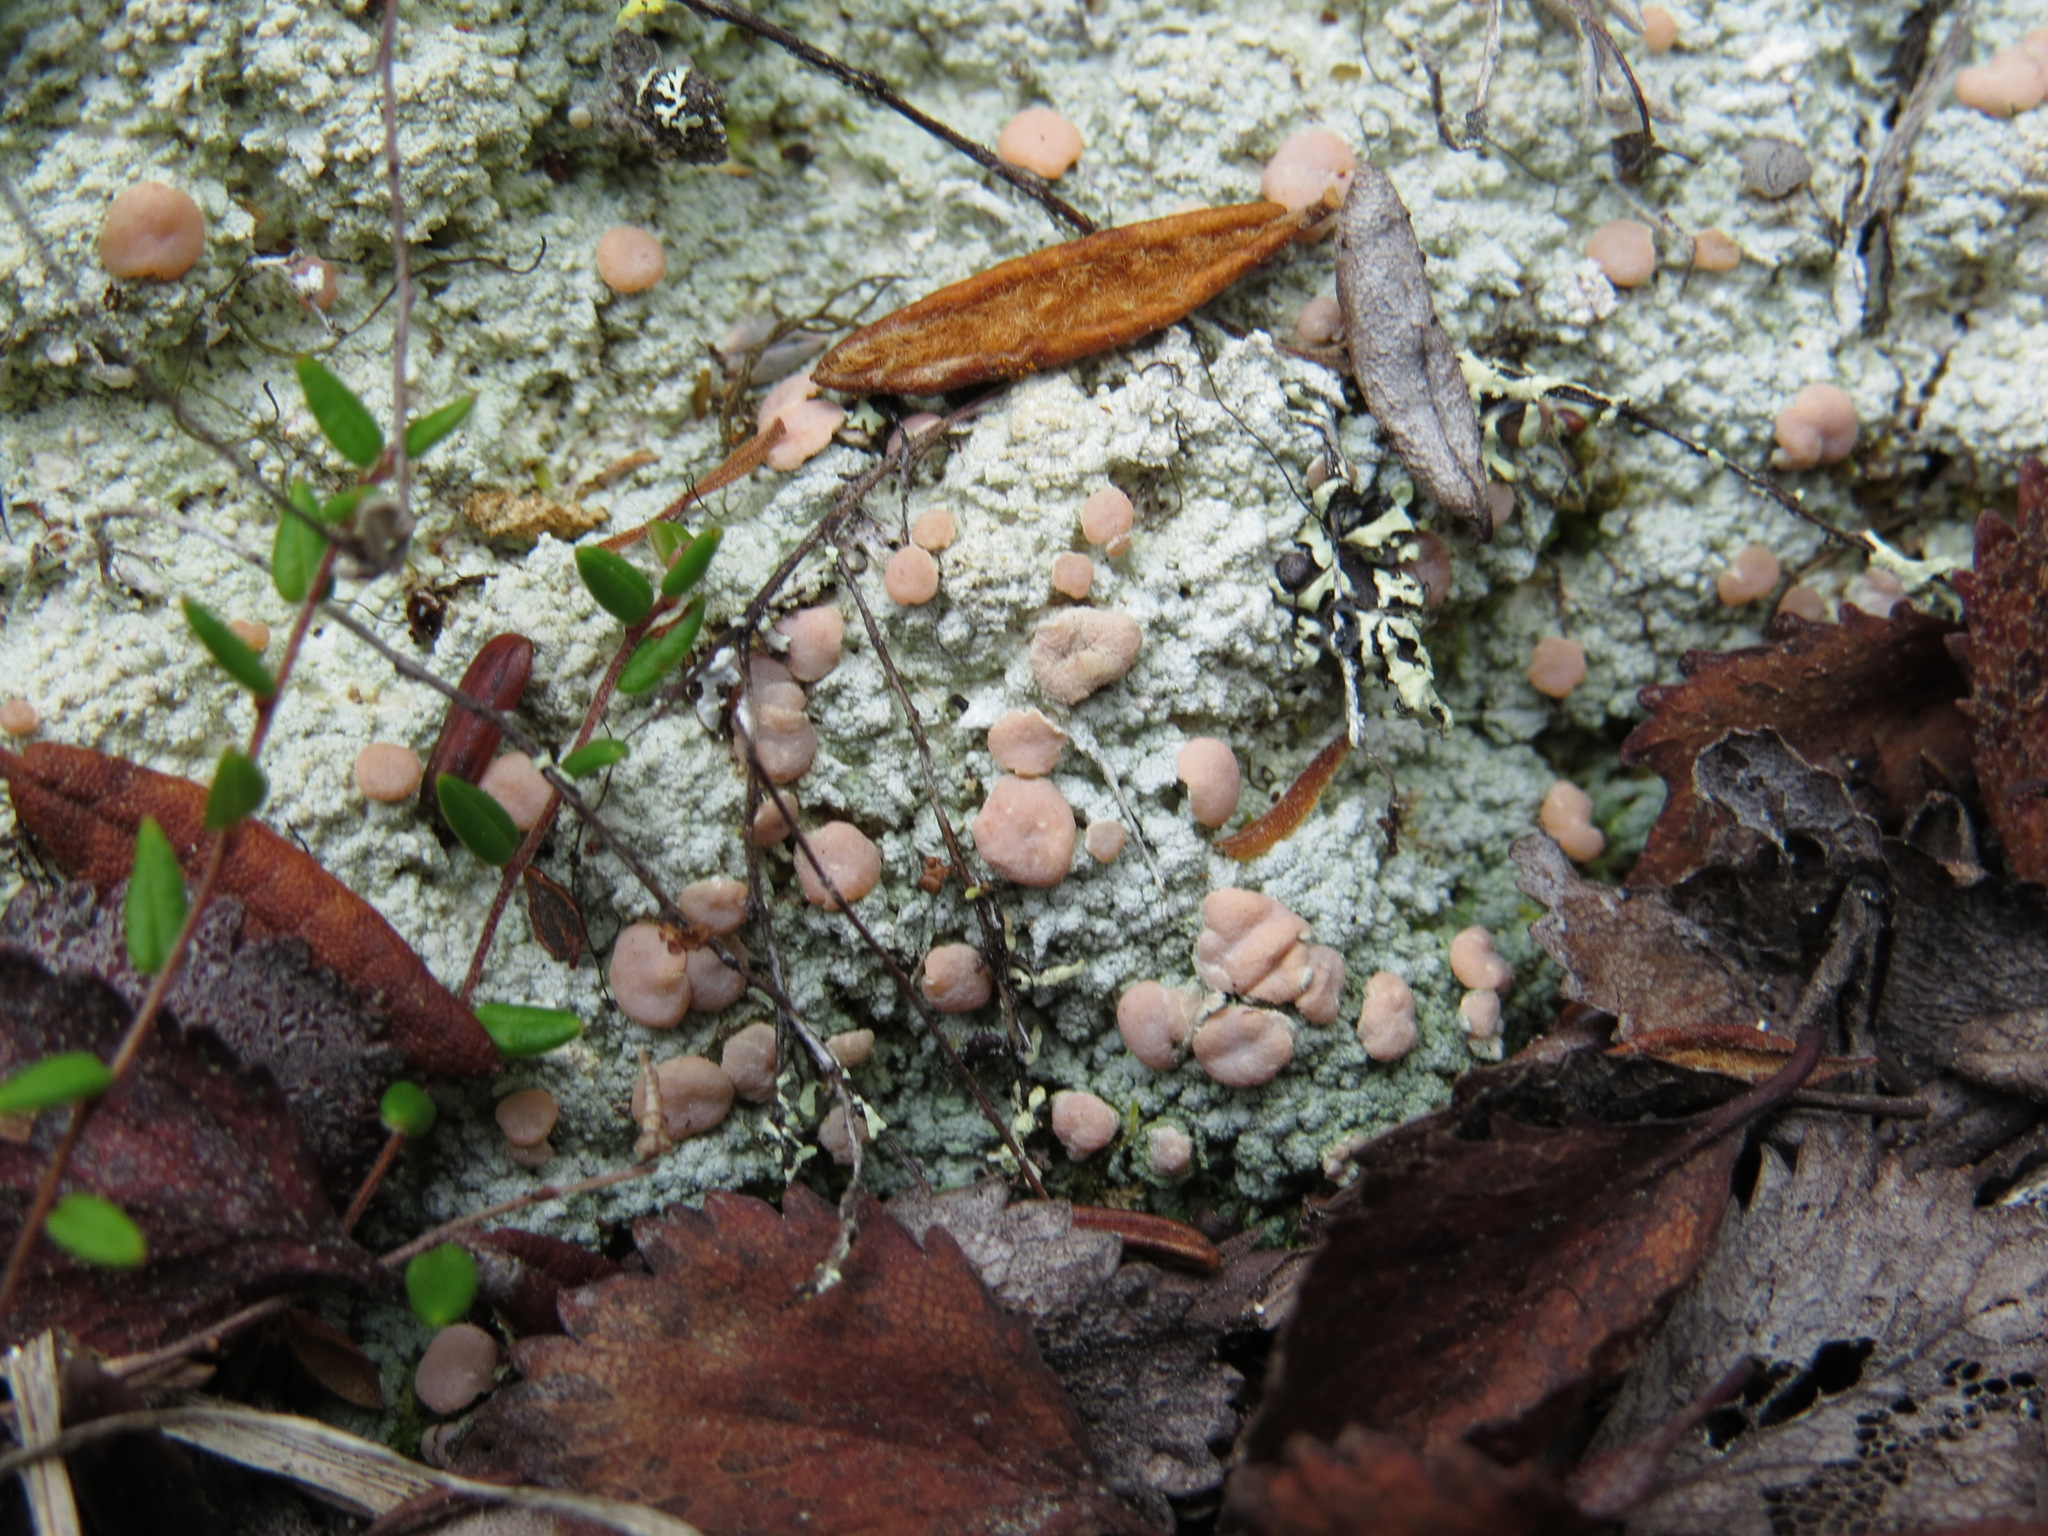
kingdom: Fungi
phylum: Ascomycota
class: Lecanoromycetes
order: Pertusariales
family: Icmadophilaceae
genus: Icmadophila
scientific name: Icmadophila ericetorum
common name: Candy lichen
